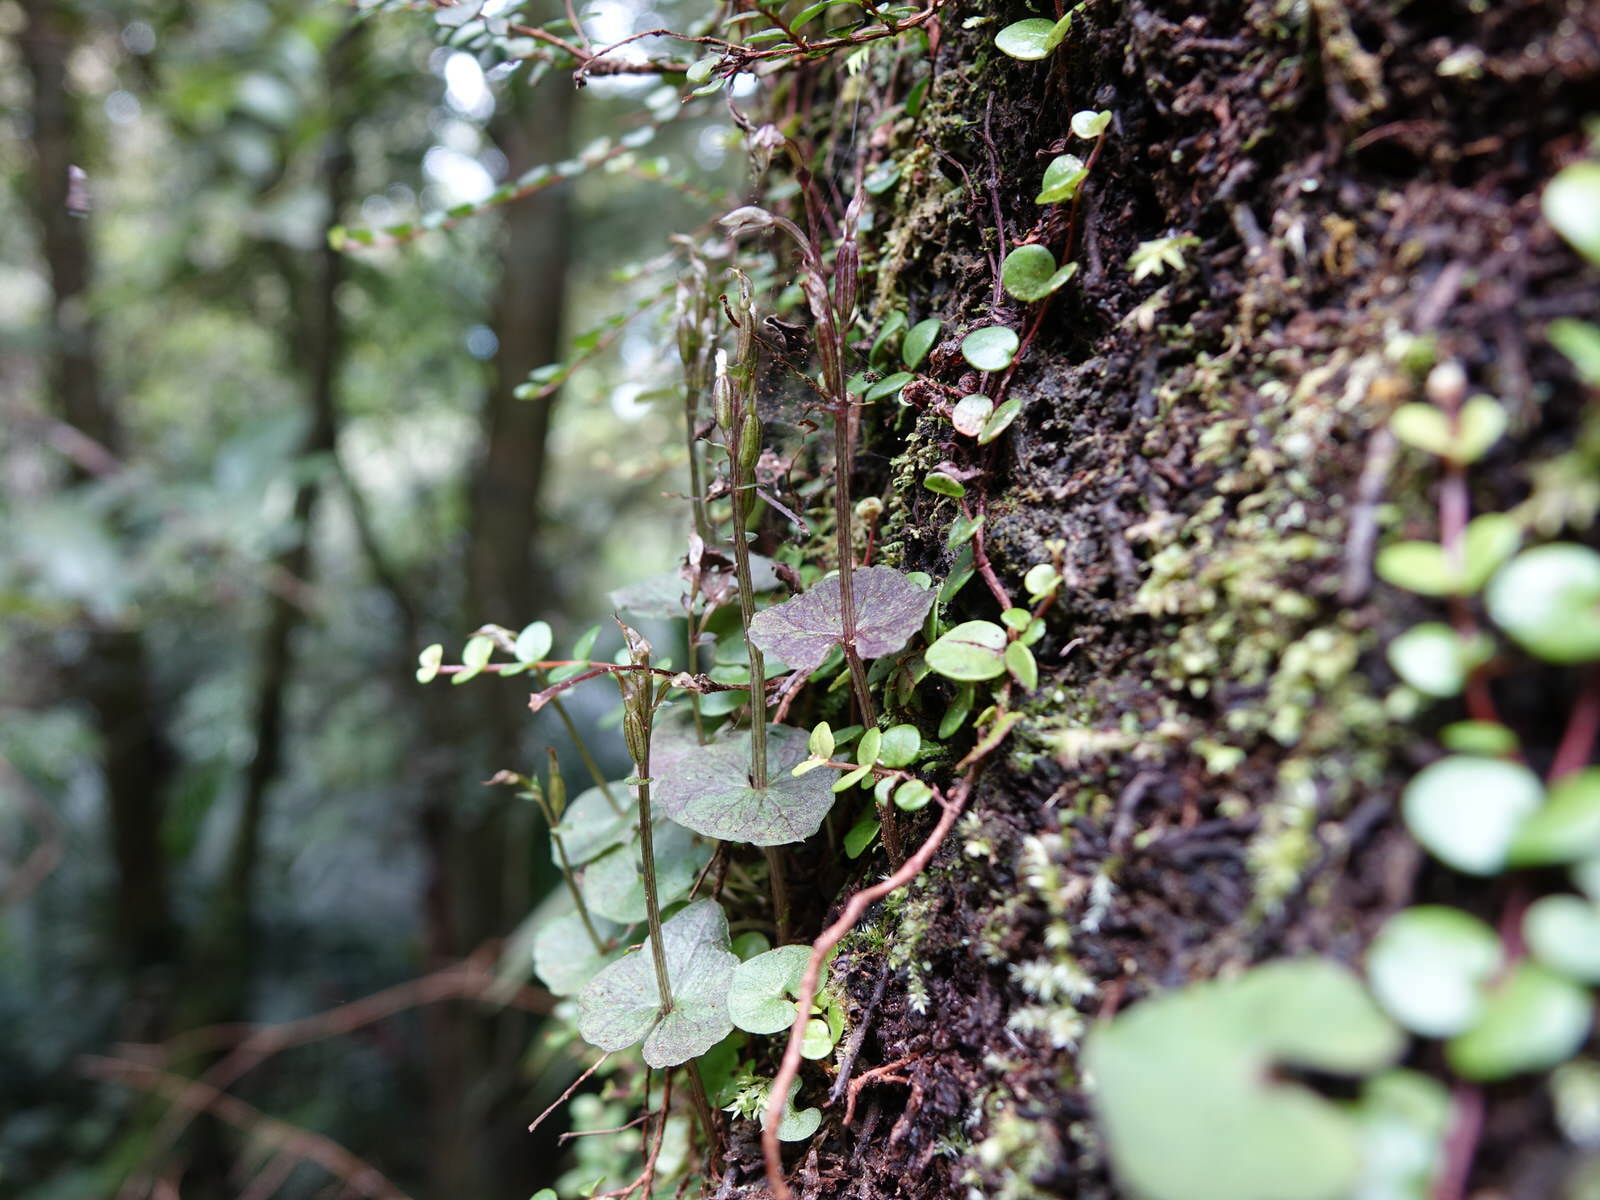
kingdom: Plantae
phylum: Tracheophyta
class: Liliopsida
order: Asparagales
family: Orchidaceae
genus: Acianthus
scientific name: Acianthus sinclairii
